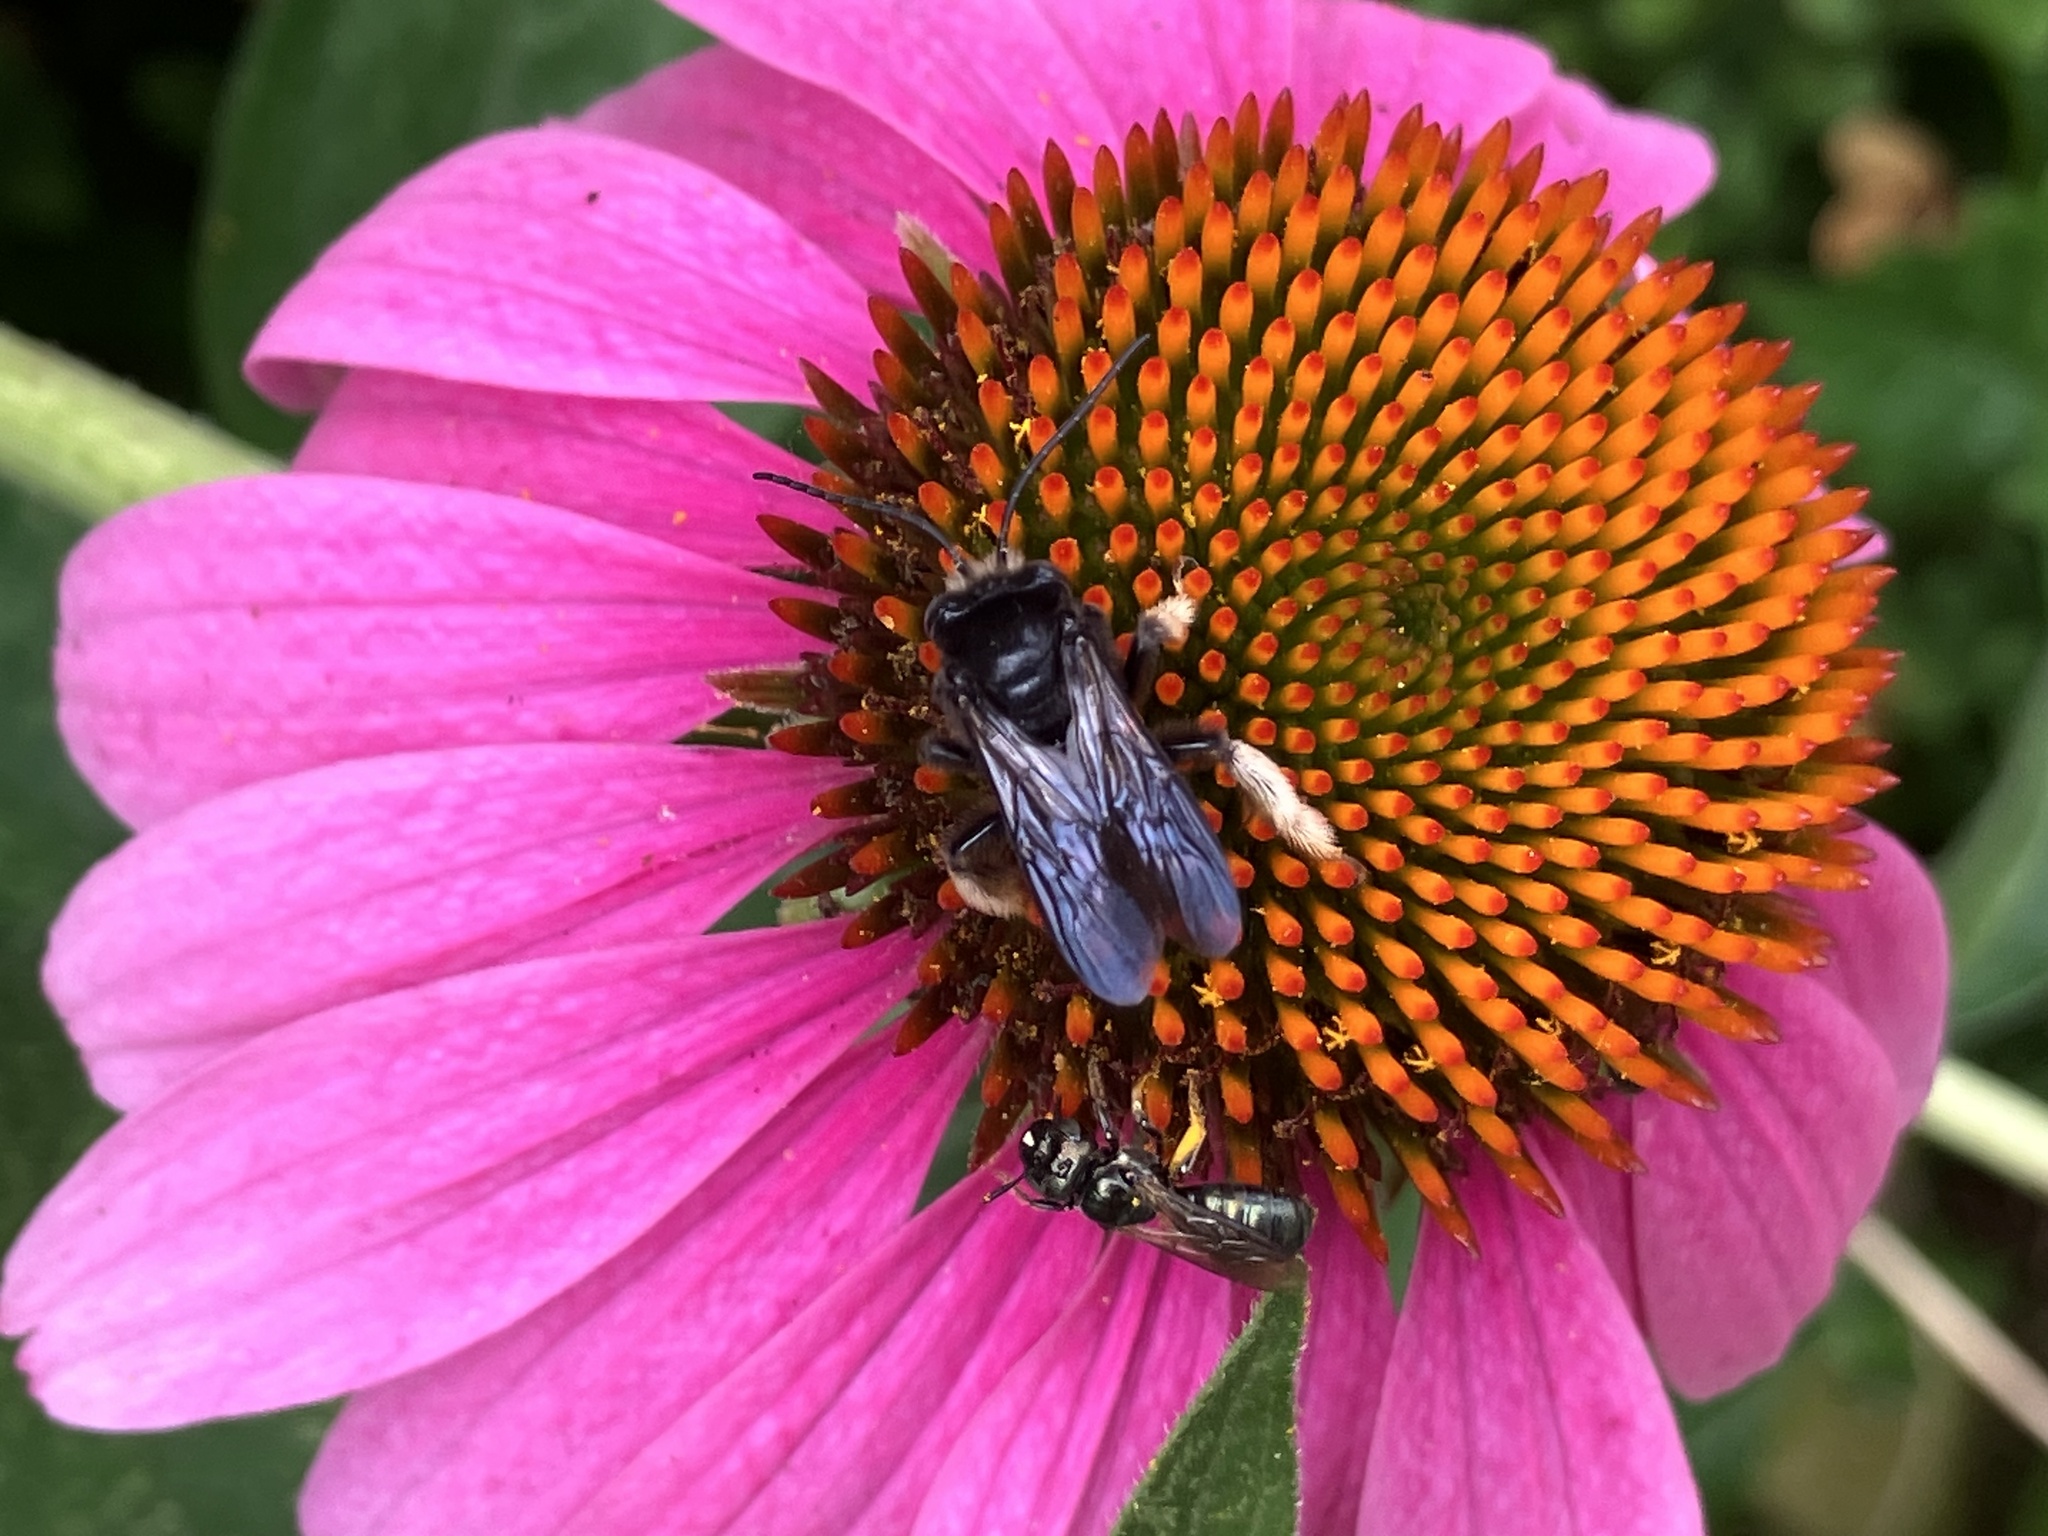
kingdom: Animalia
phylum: Arthropoda
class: Insecta
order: Hymenoptera
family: Apidae
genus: Melissodes
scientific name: Melissodes bimaculatus
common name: Two-spotted long-horned bee
